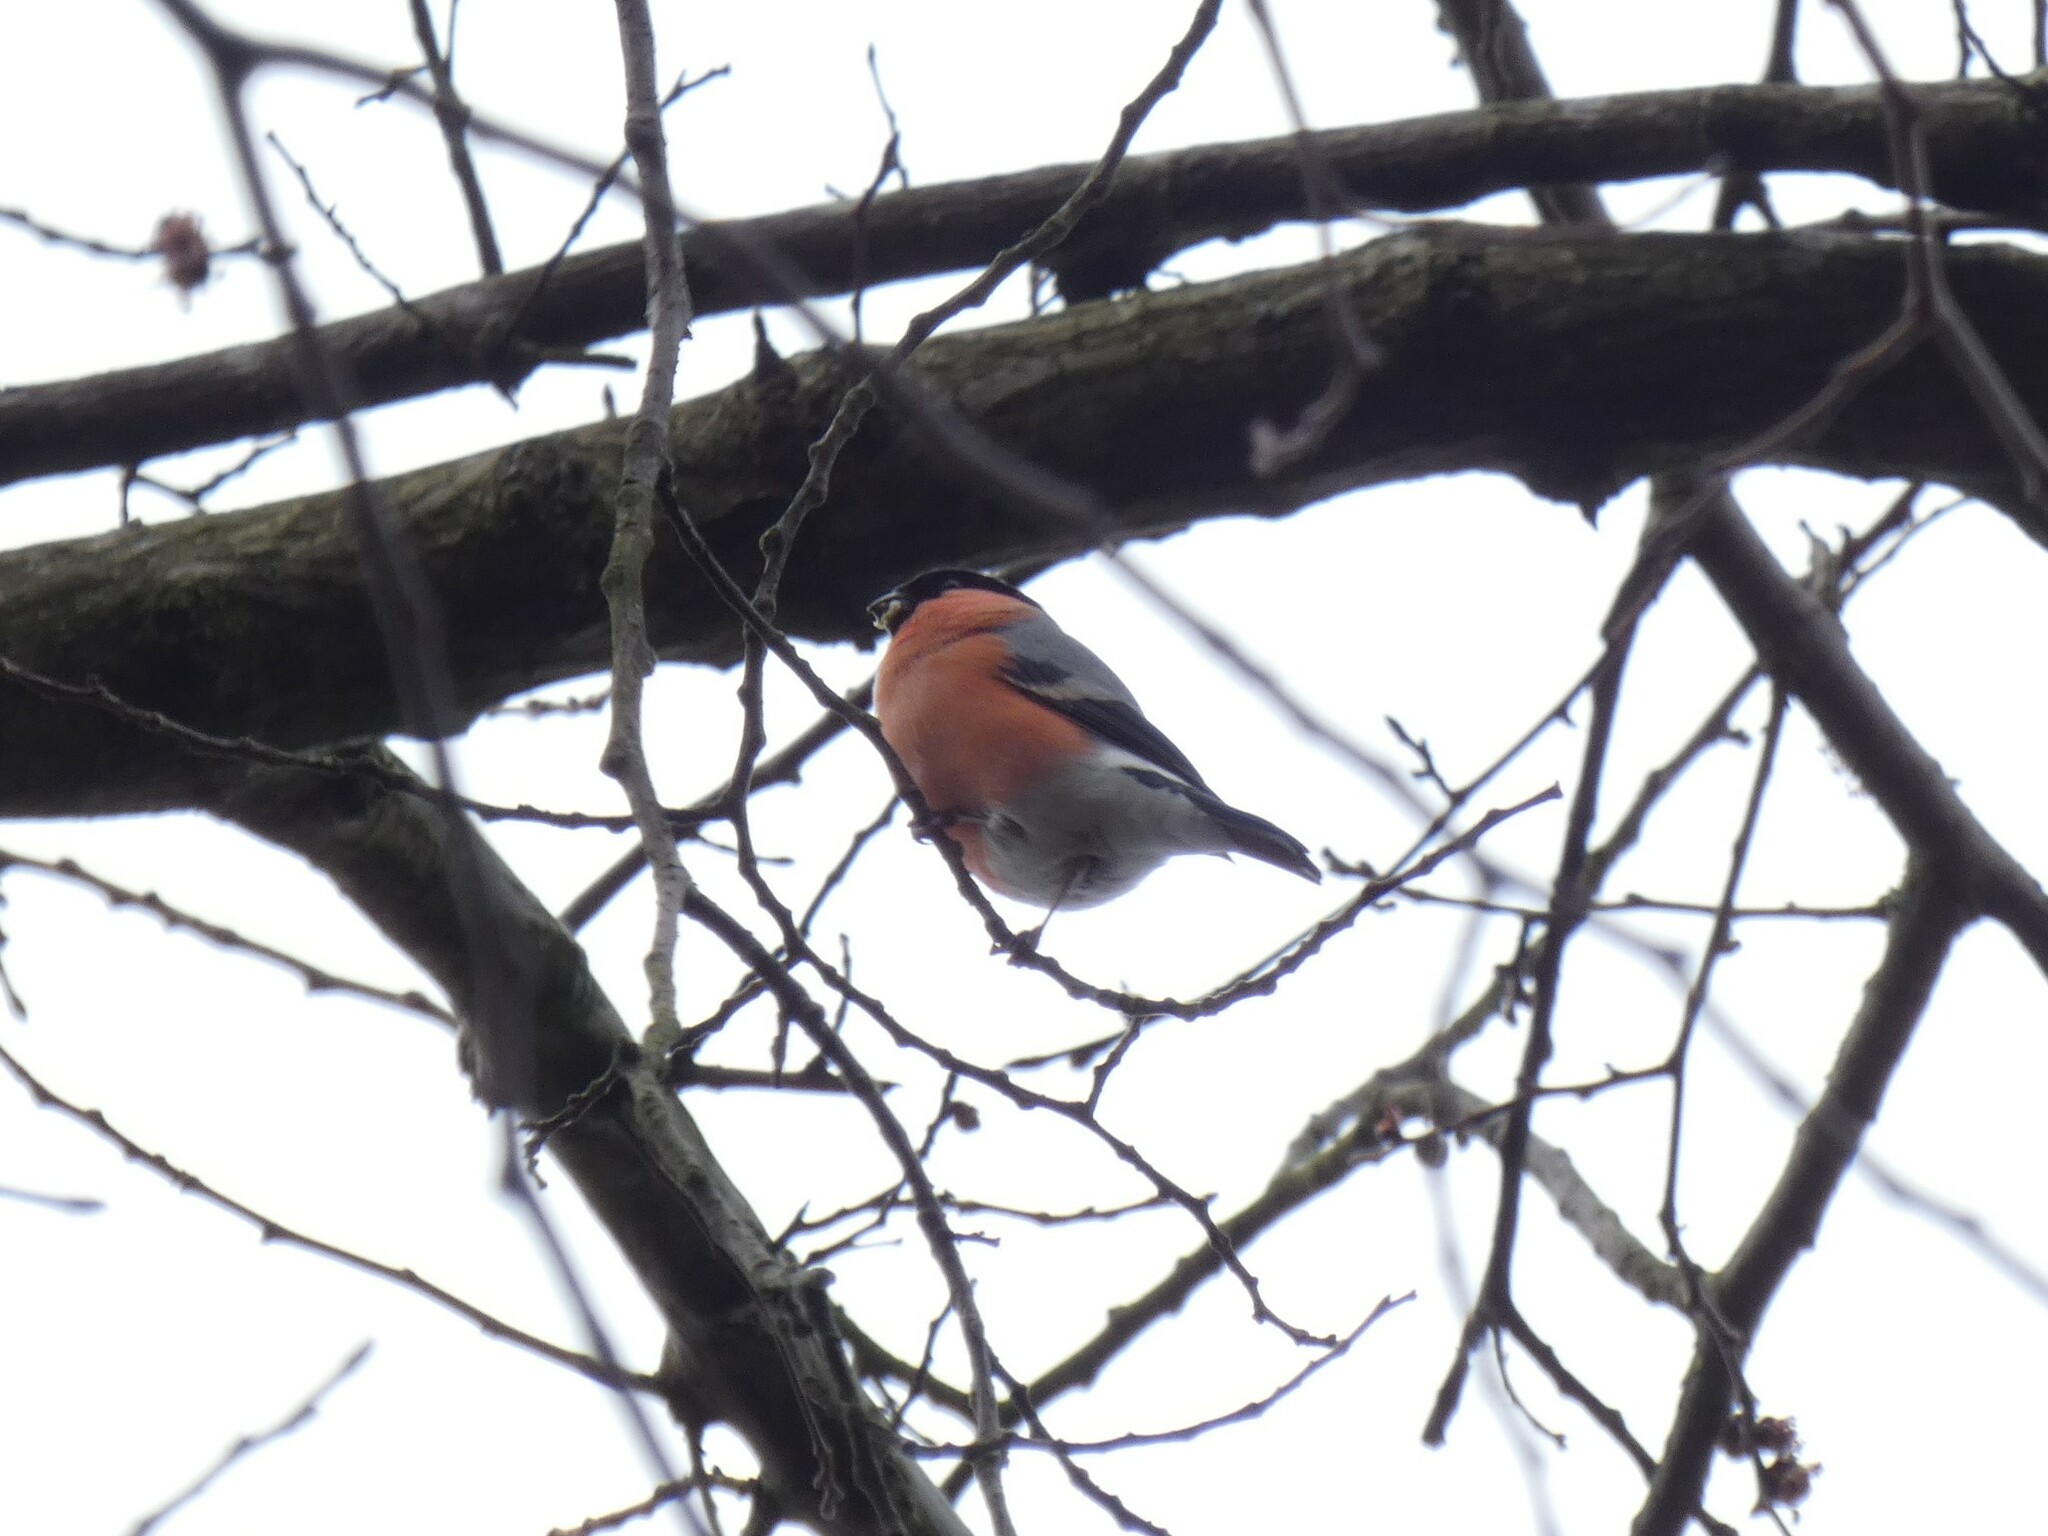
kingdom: Animalia
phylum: Chordata
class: Aves
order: Passeriformes
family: Fringillidae
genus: Pyrrhula
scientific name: Pyrrhula pyrrhula
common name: Eurasian bullfinch
